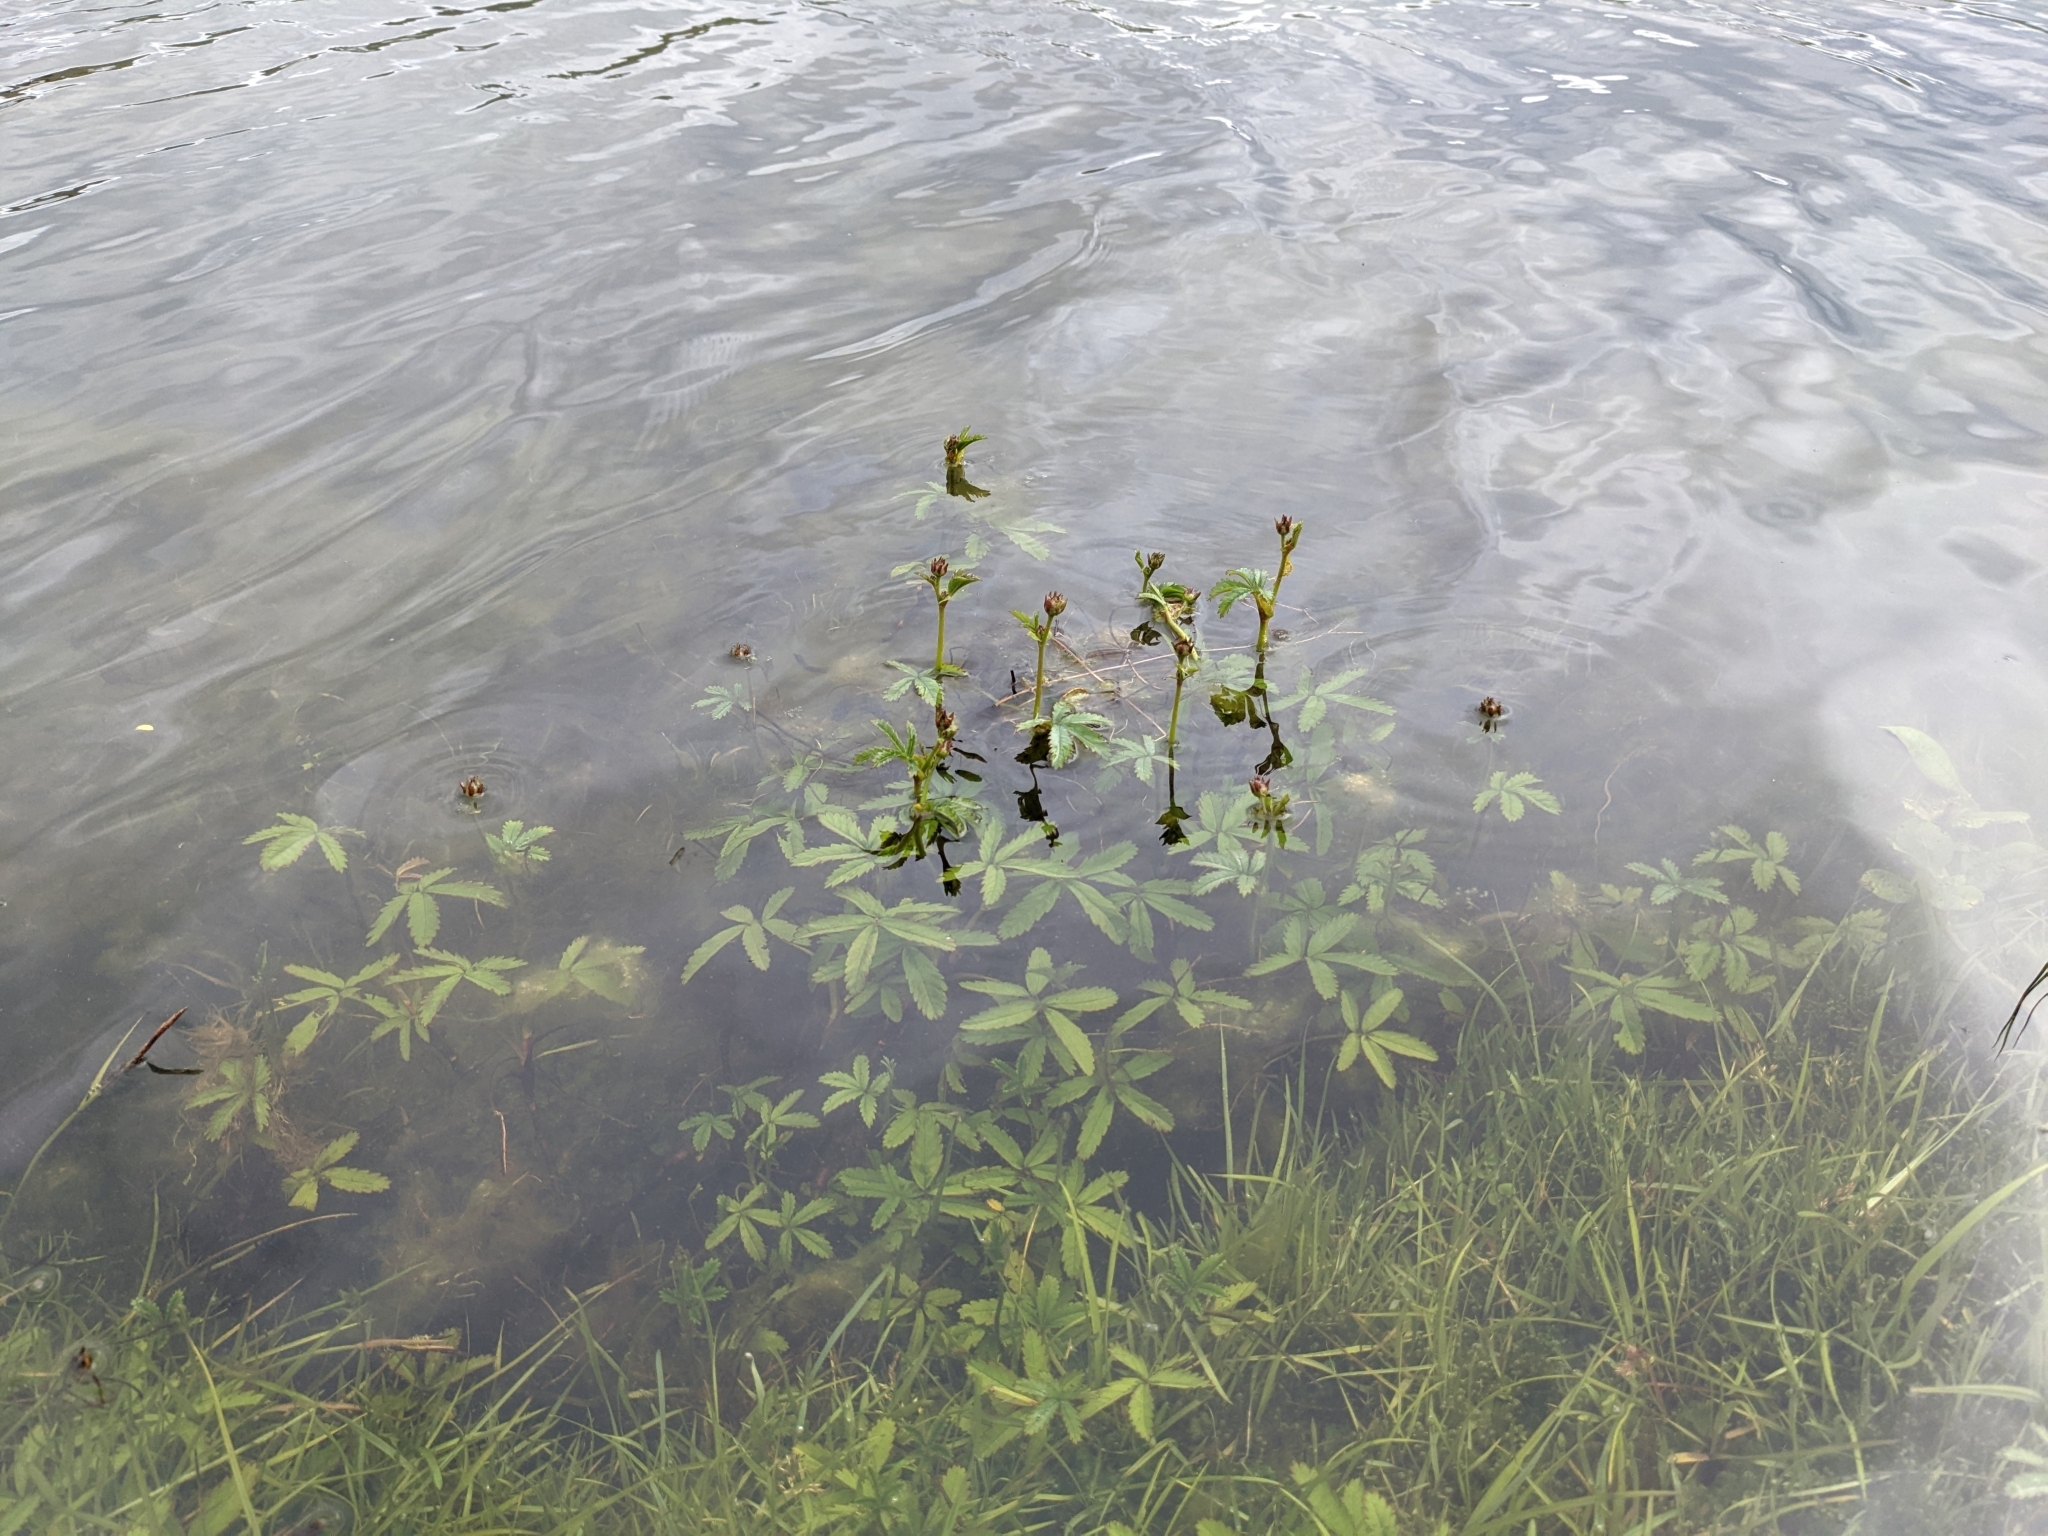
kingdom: Plantae
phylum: Tracheophyta
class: Magnoliopsida
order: Rosales
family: Rosaceae
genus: Comarum
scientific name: Comarum palustre
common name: Marsh cinquefoil
